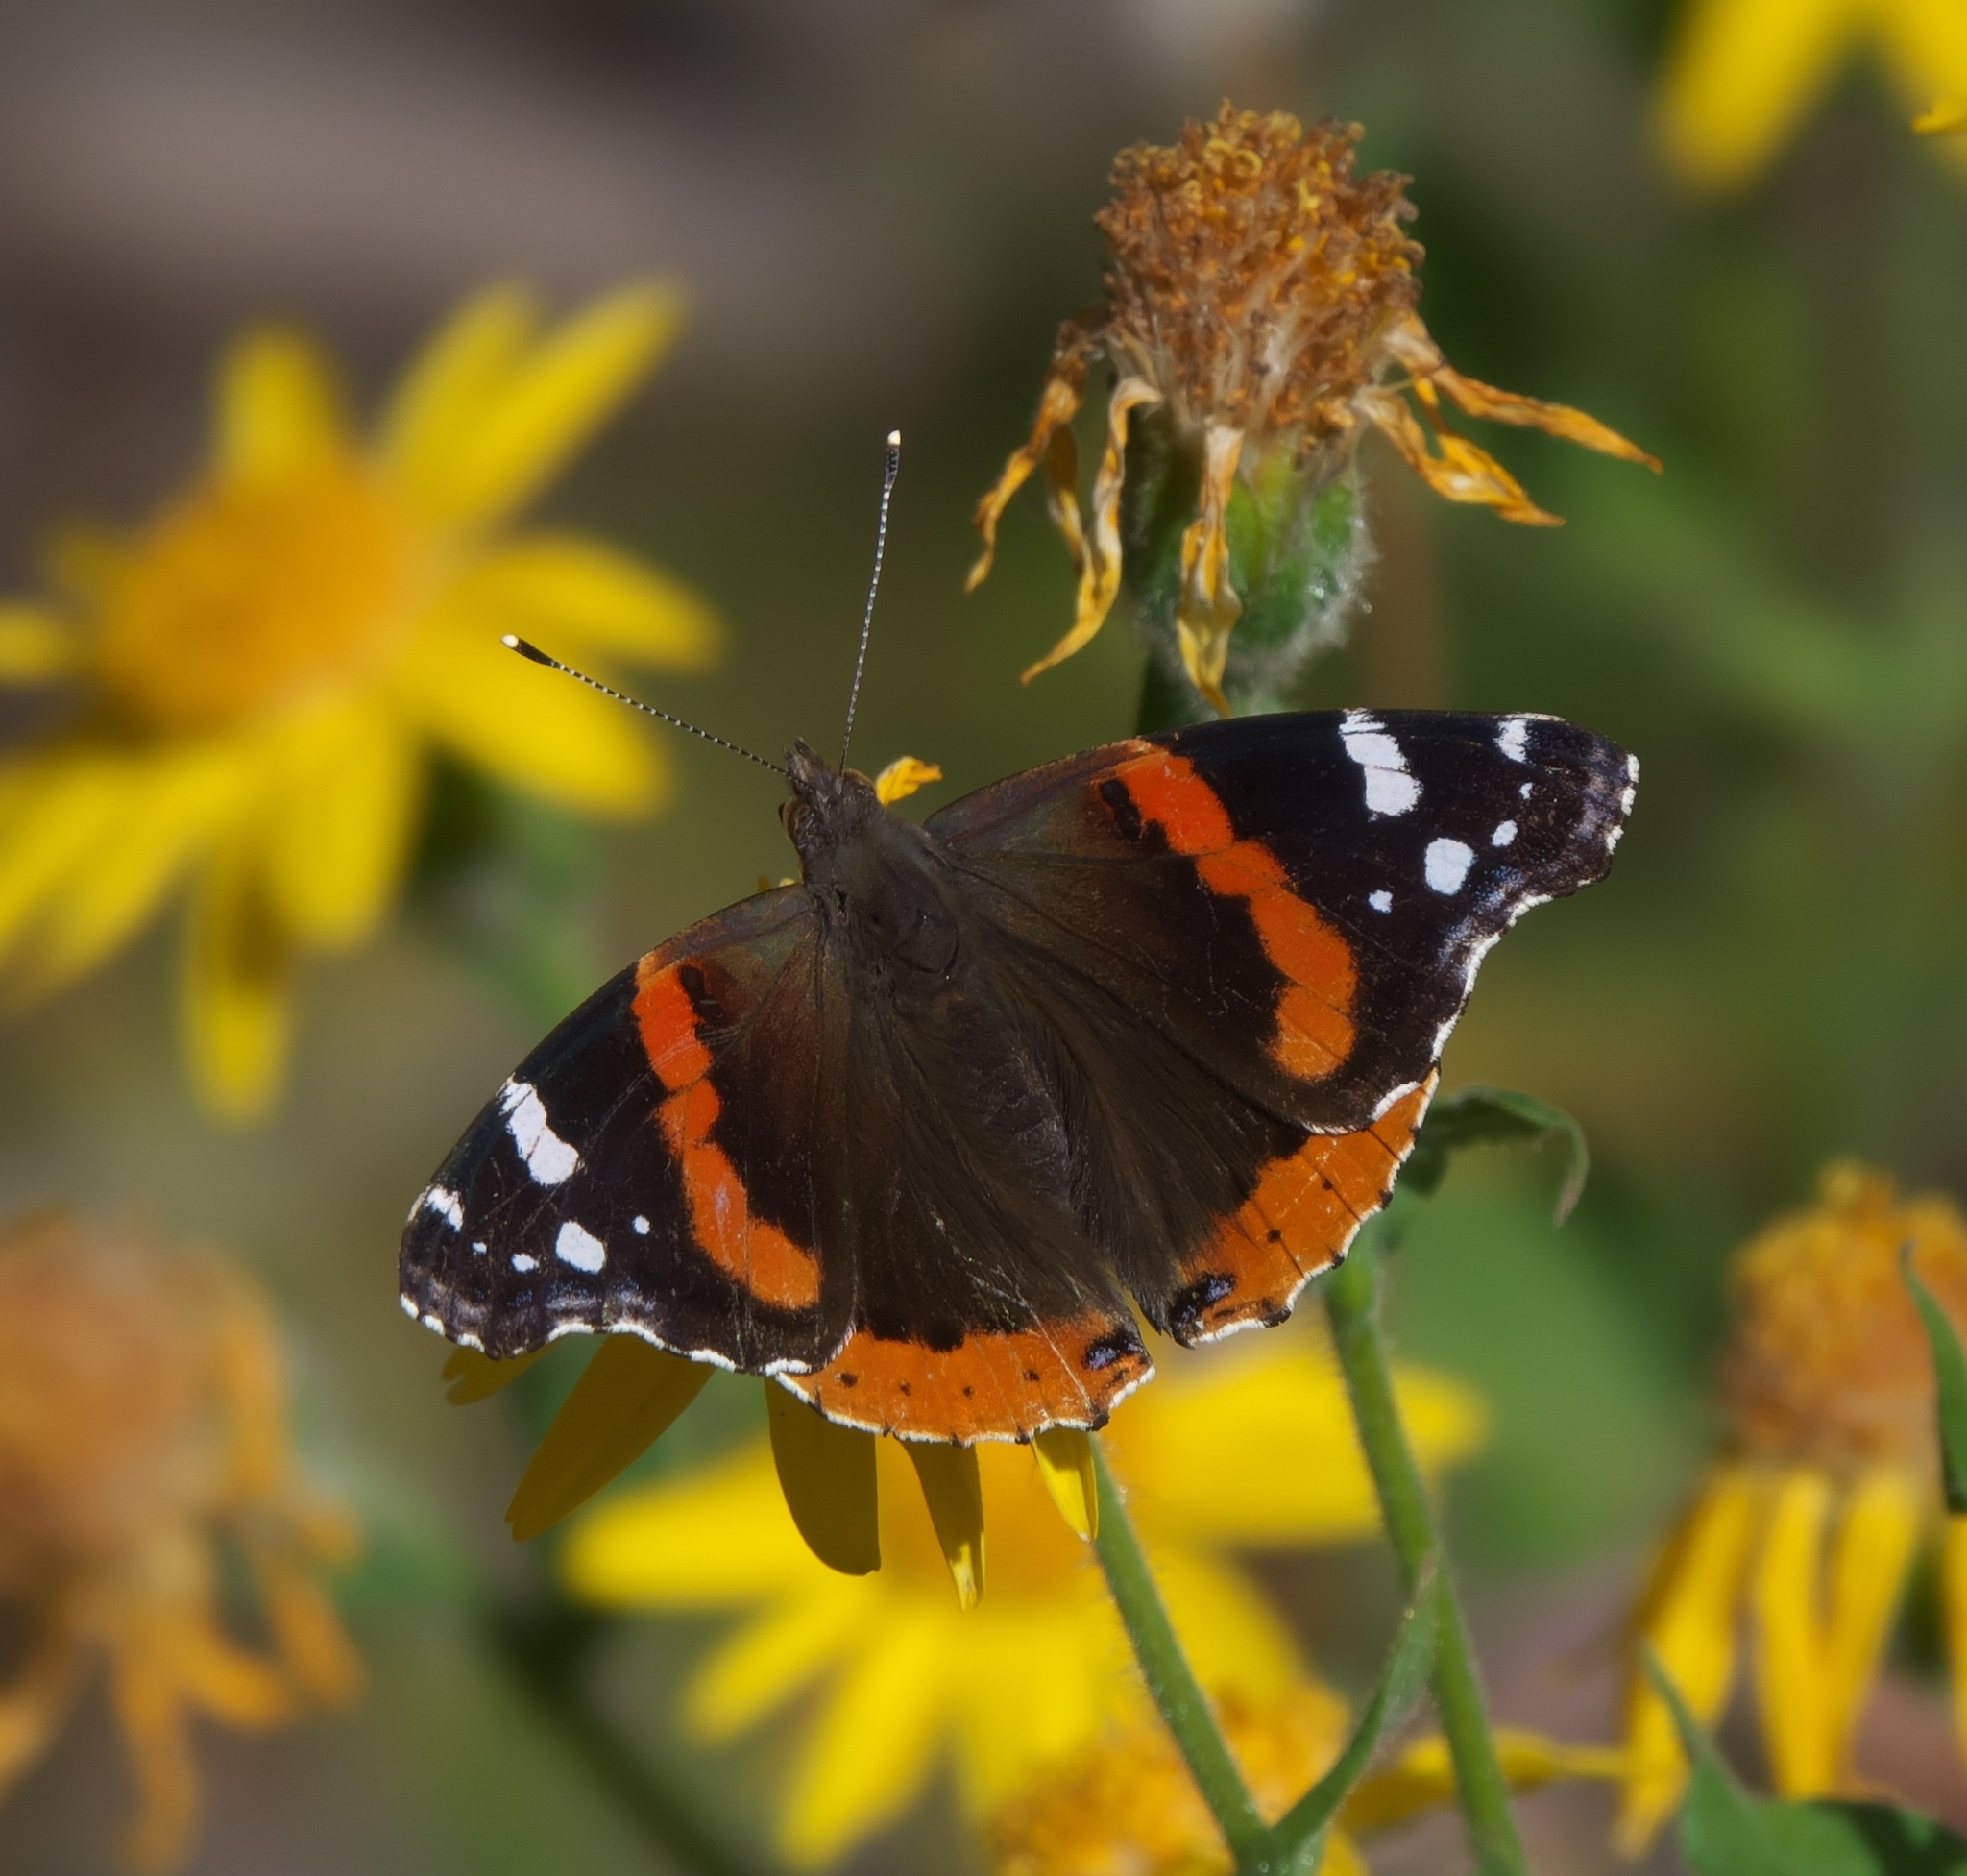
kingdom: Animalia
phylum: Arthropoda
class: Insecta
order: Lepidoptera
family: Nymphalidae
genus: Vanessa
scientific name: Vanessa atalanta
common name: Red admiral
